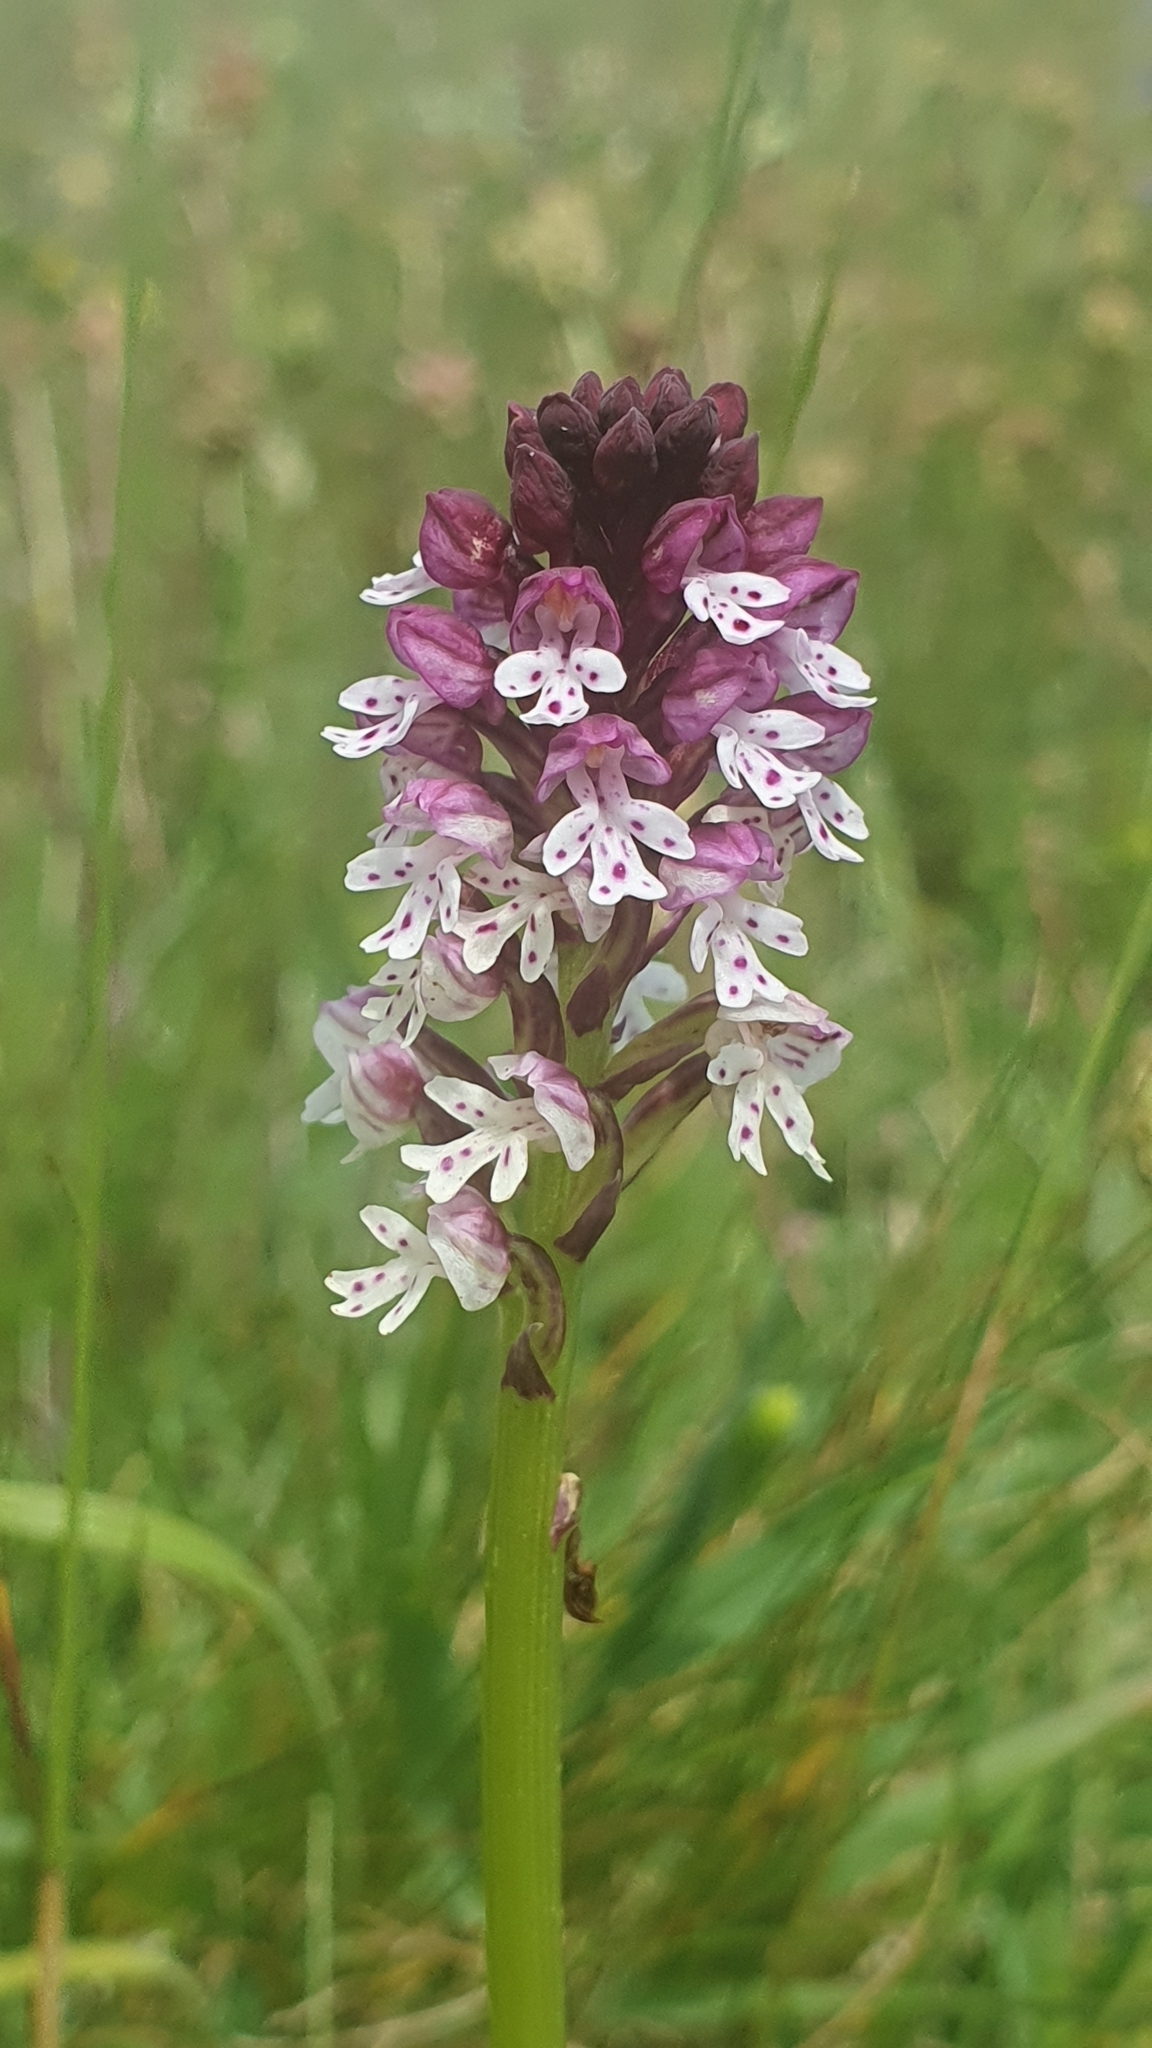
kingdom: Plantae
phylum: Tracheophyta
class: Liliopsida
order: Asparagales
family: Orchidaceae
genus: Neotinea
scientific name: Neotinea ustulata
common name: Burnt orchid
